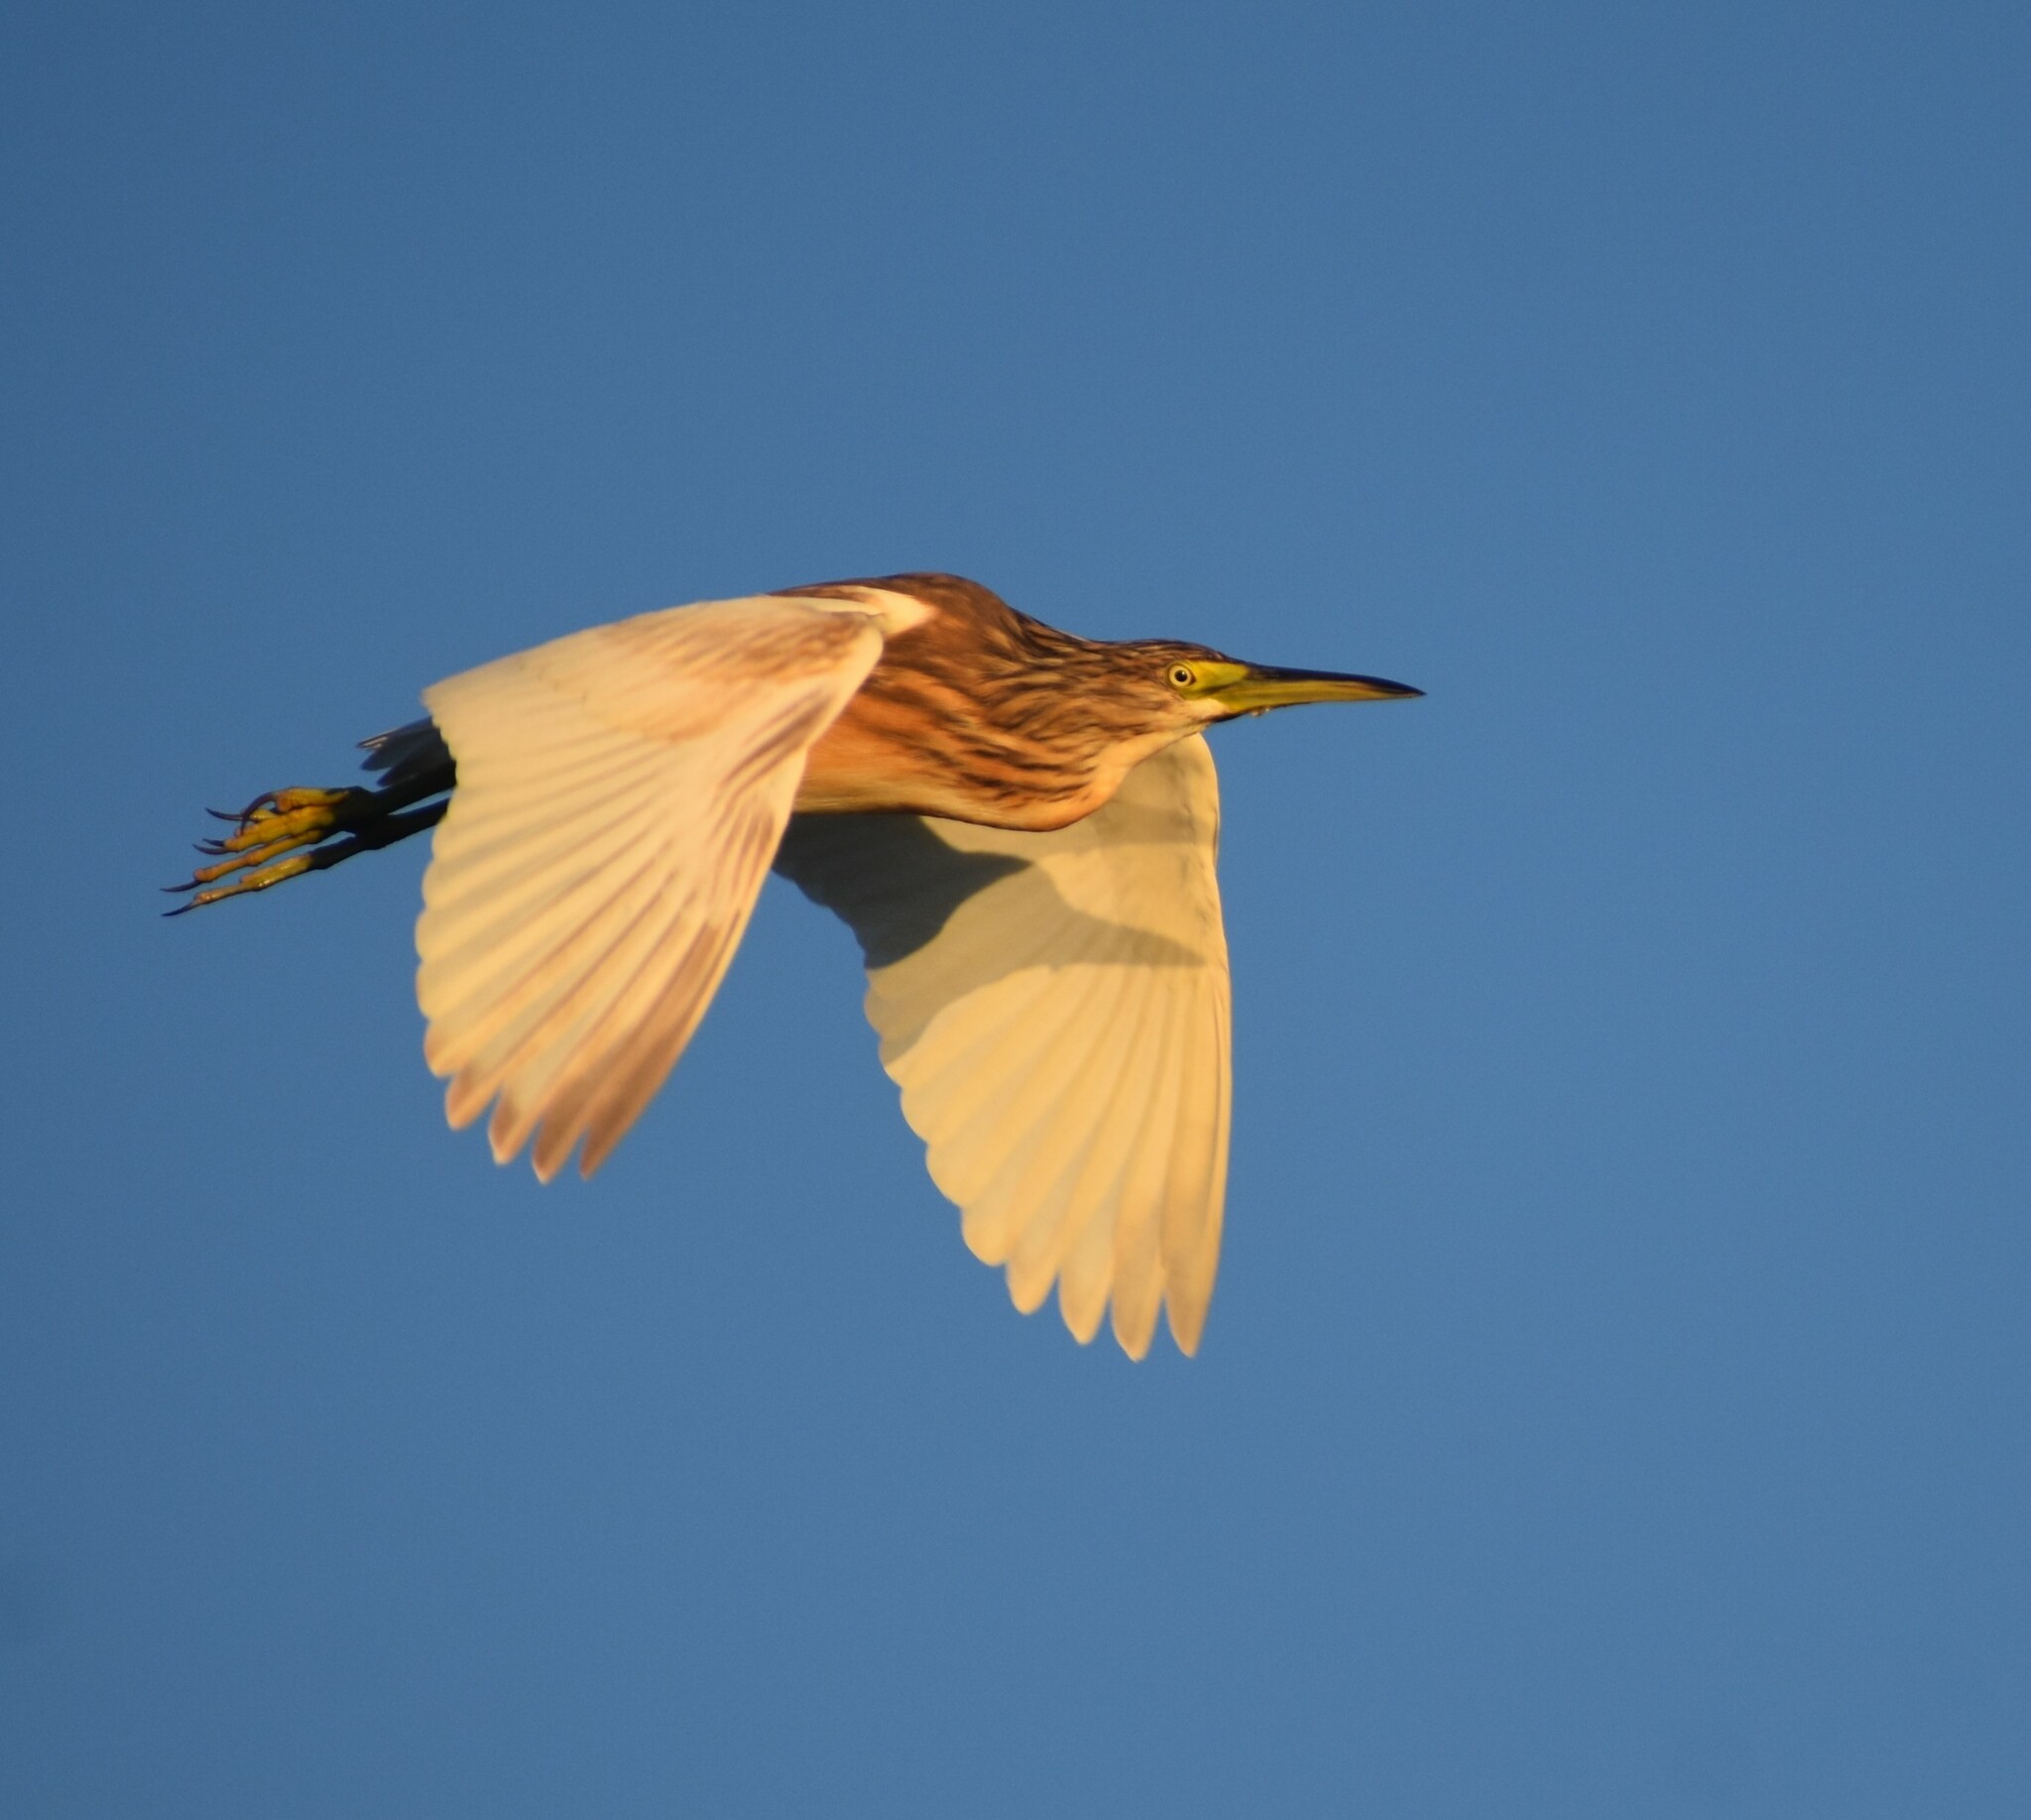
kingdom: Animalia
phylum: Chordata
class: Aves
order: Pelecaniformes
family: Ardeidae
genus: Ardeola
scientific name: Ardeola ralloides
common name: Squacco heron
